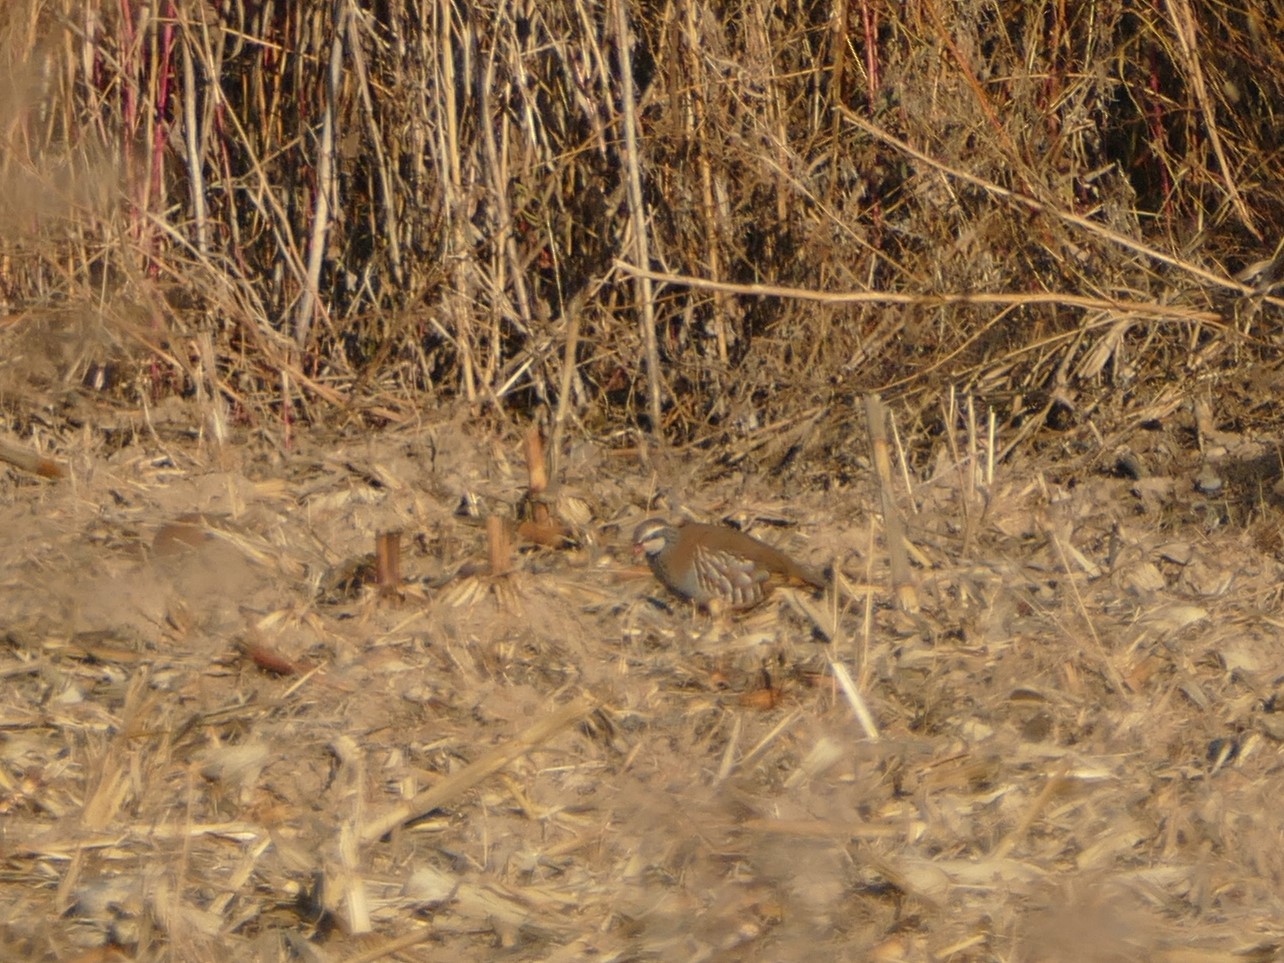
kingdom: Animalia
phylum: Chordata
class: Aves
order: Galliformes
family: Phasianidae
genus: Alectoris
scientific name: Alectoris rufa
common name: Red-legged partridge
